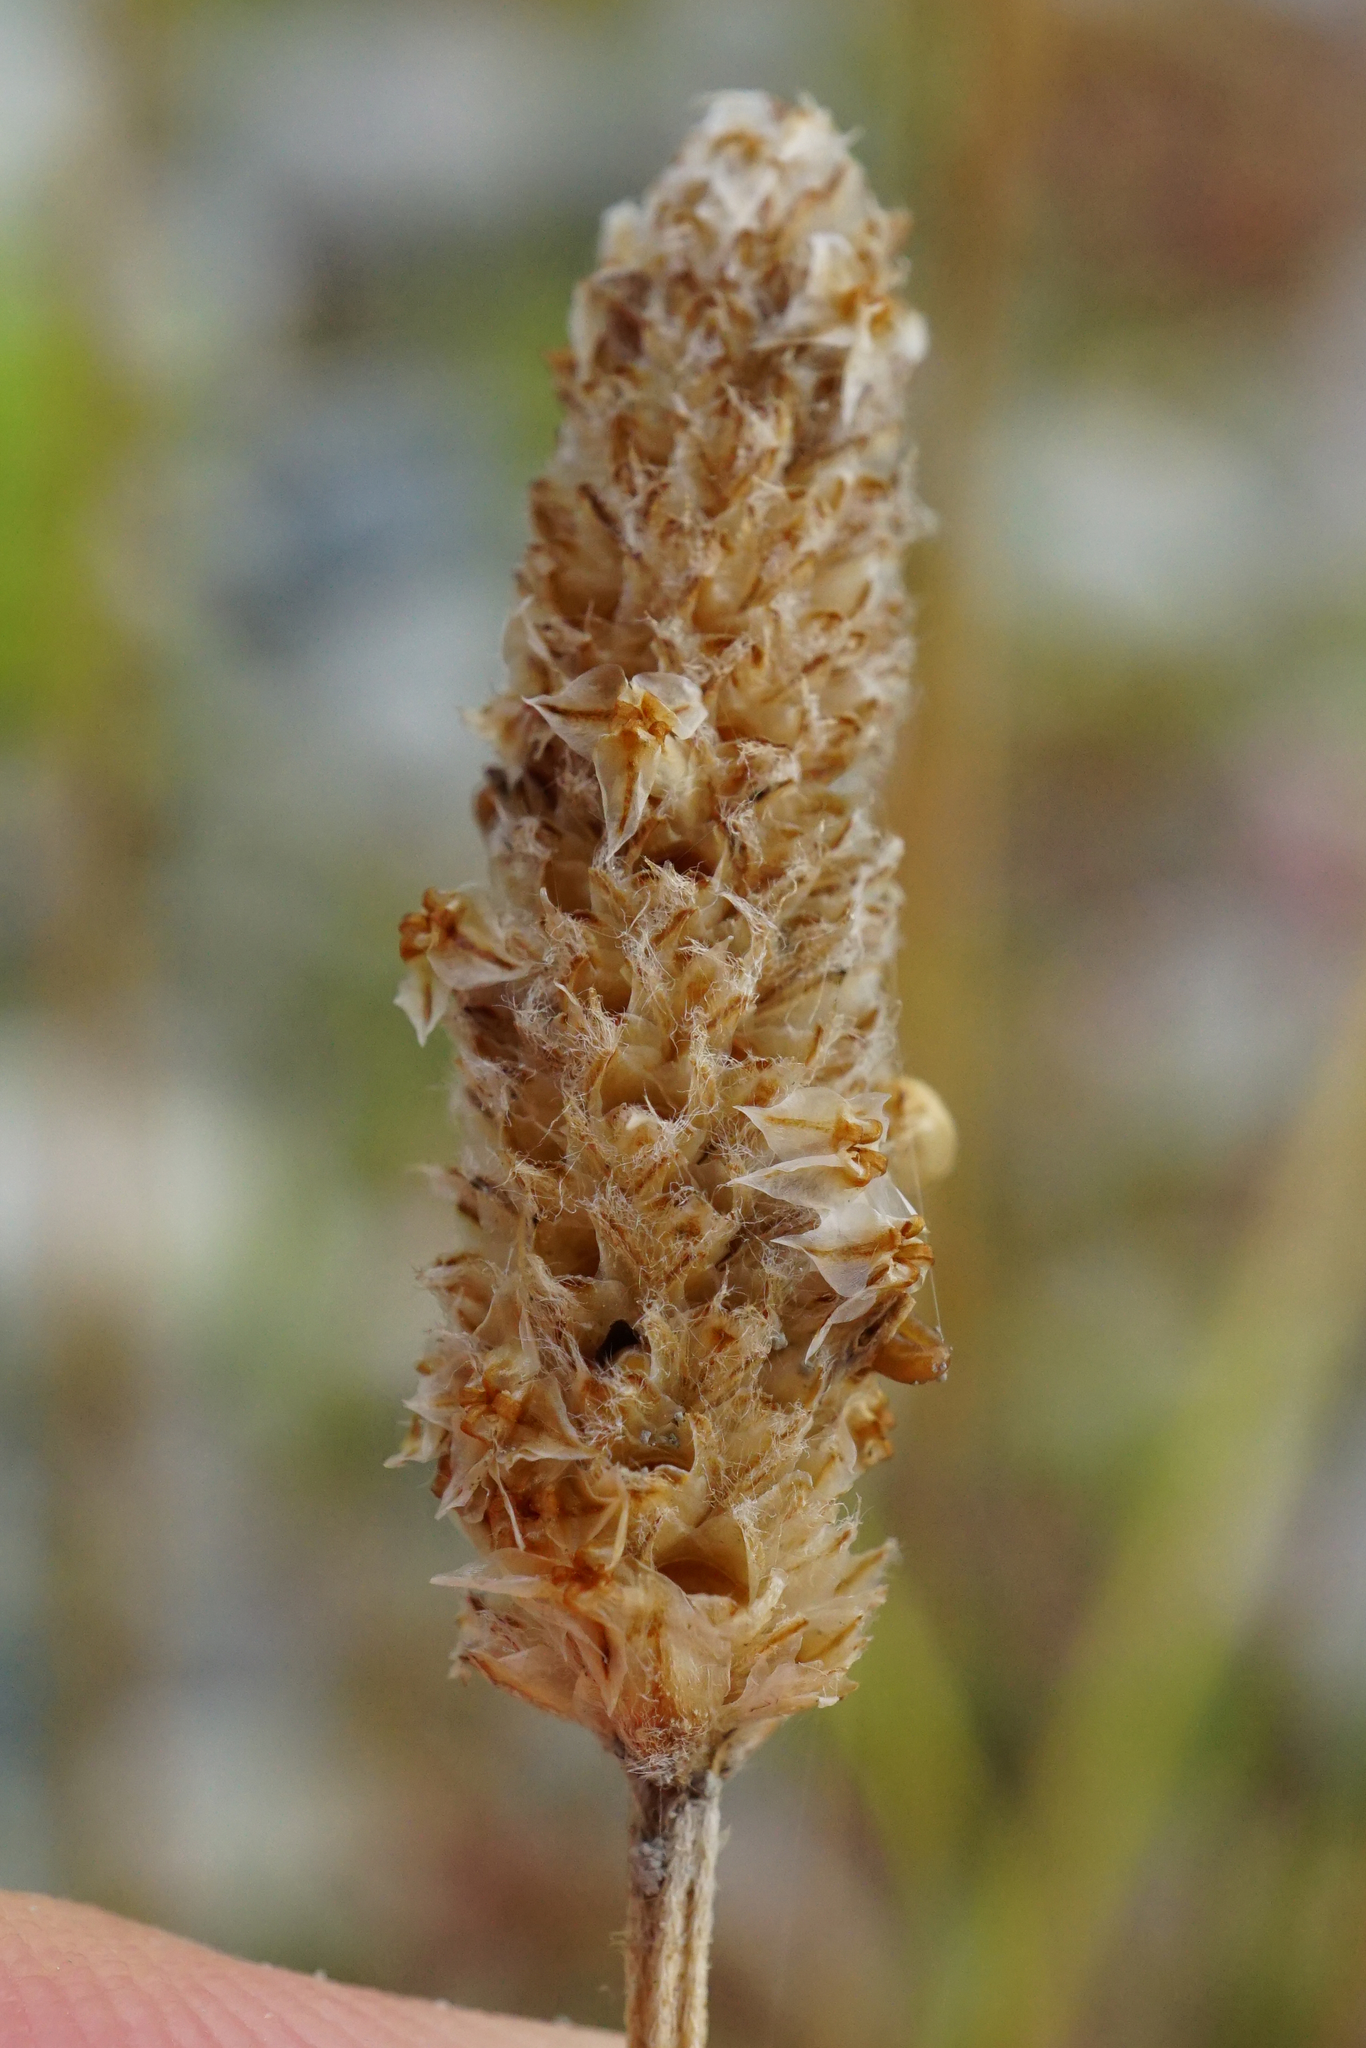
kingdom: Plantae
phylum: Tracheophyta
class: Magnoliopsida
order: Lamiales
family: Plantaginaceae
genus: Plantago
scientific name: Plantago lanceolata
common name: Ribwort plantain
